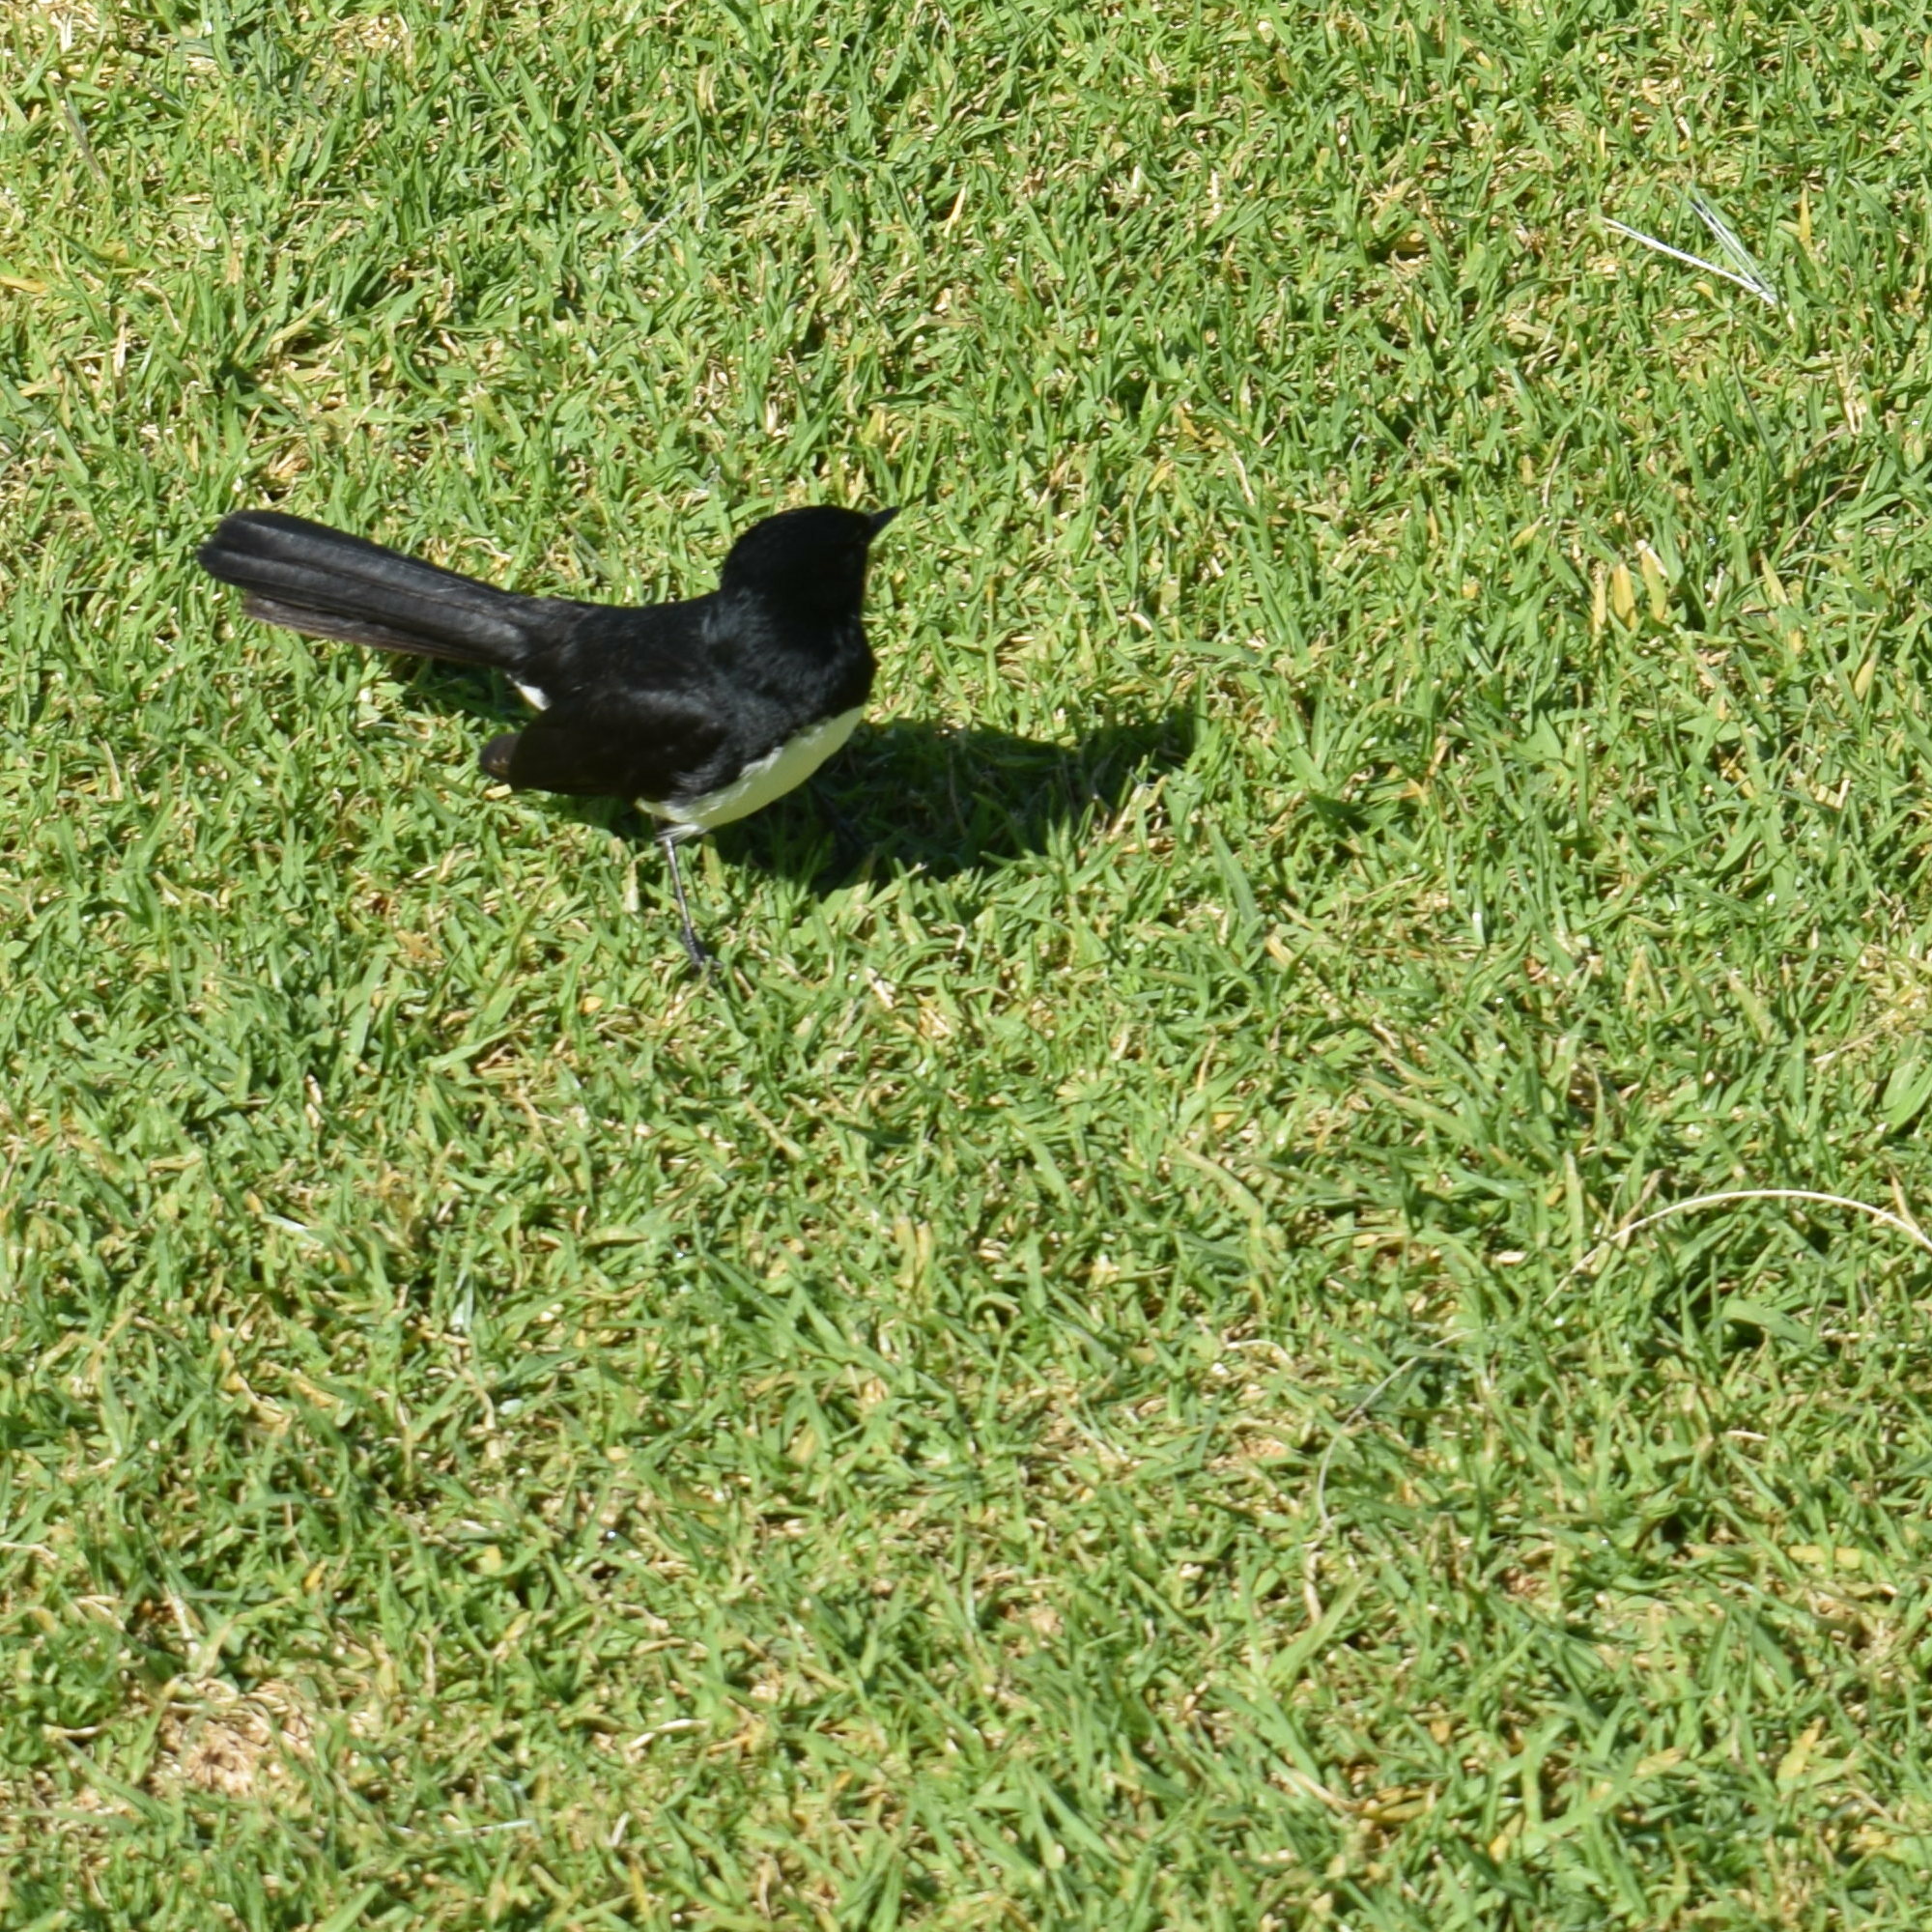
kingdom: Animalia
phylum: Chordata
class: Aves
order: Passeriformes
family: Rhipiduridae
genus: Rhipidura
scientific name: Rhipidura leucophrys
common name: Willie wagtail
